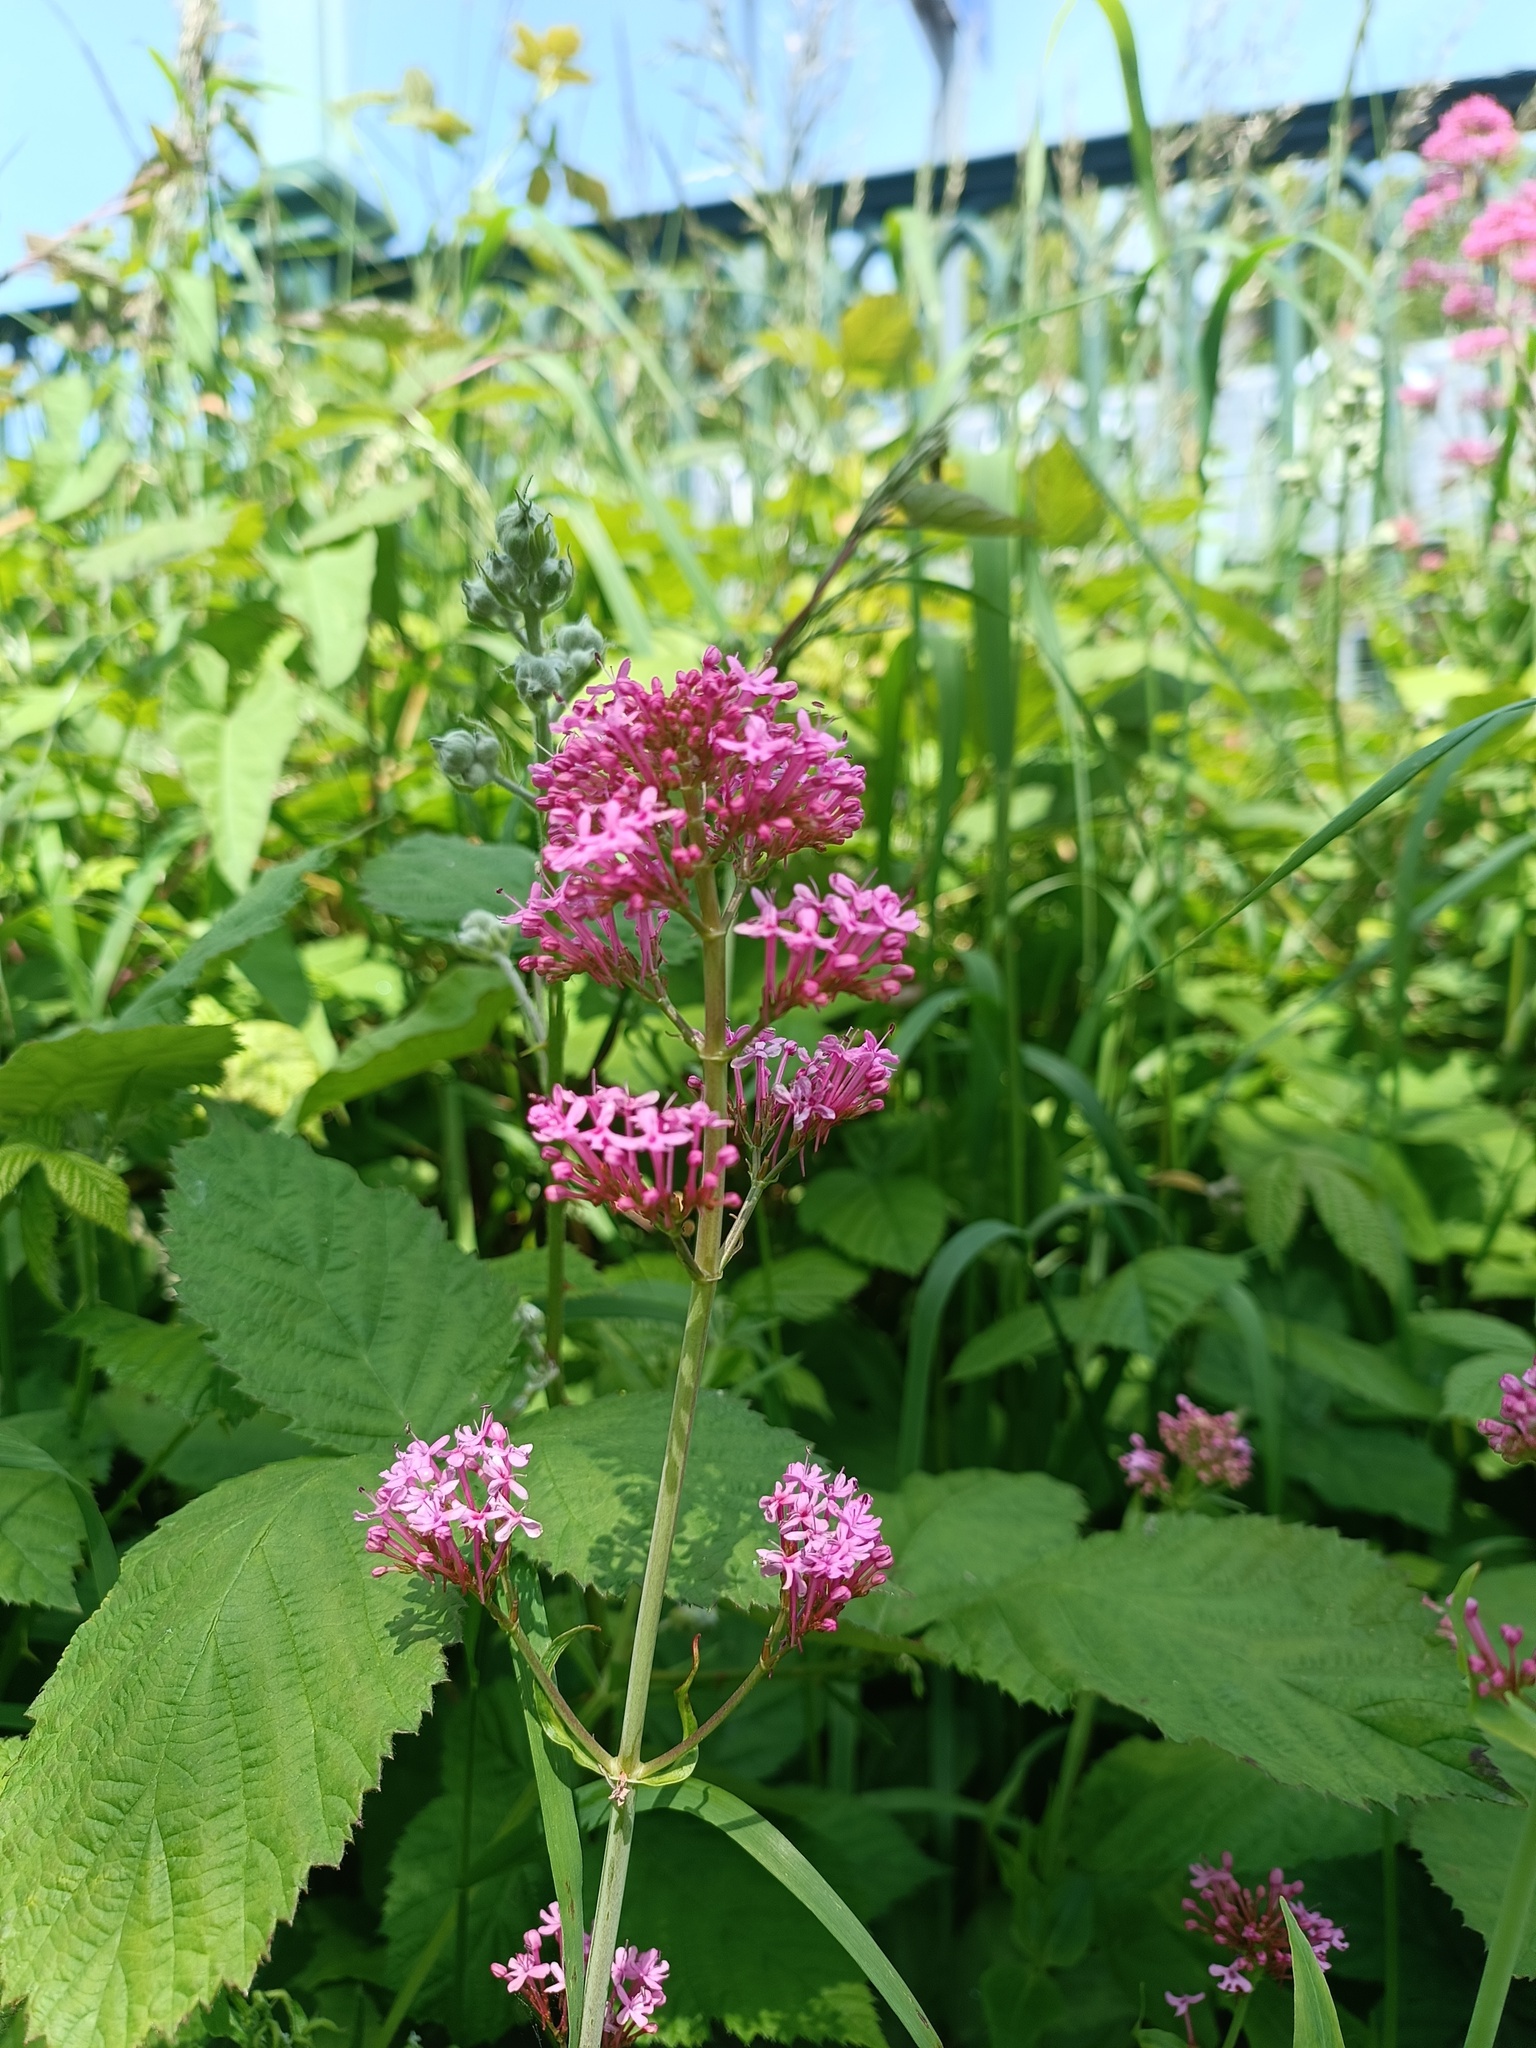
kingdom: Plantae
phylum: Tracheophyta
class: Magnoliopsida
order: Dipsacales
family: Caprifoliaceae
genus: Centranthus
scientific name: Centranthus ruber
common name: Red valerian
